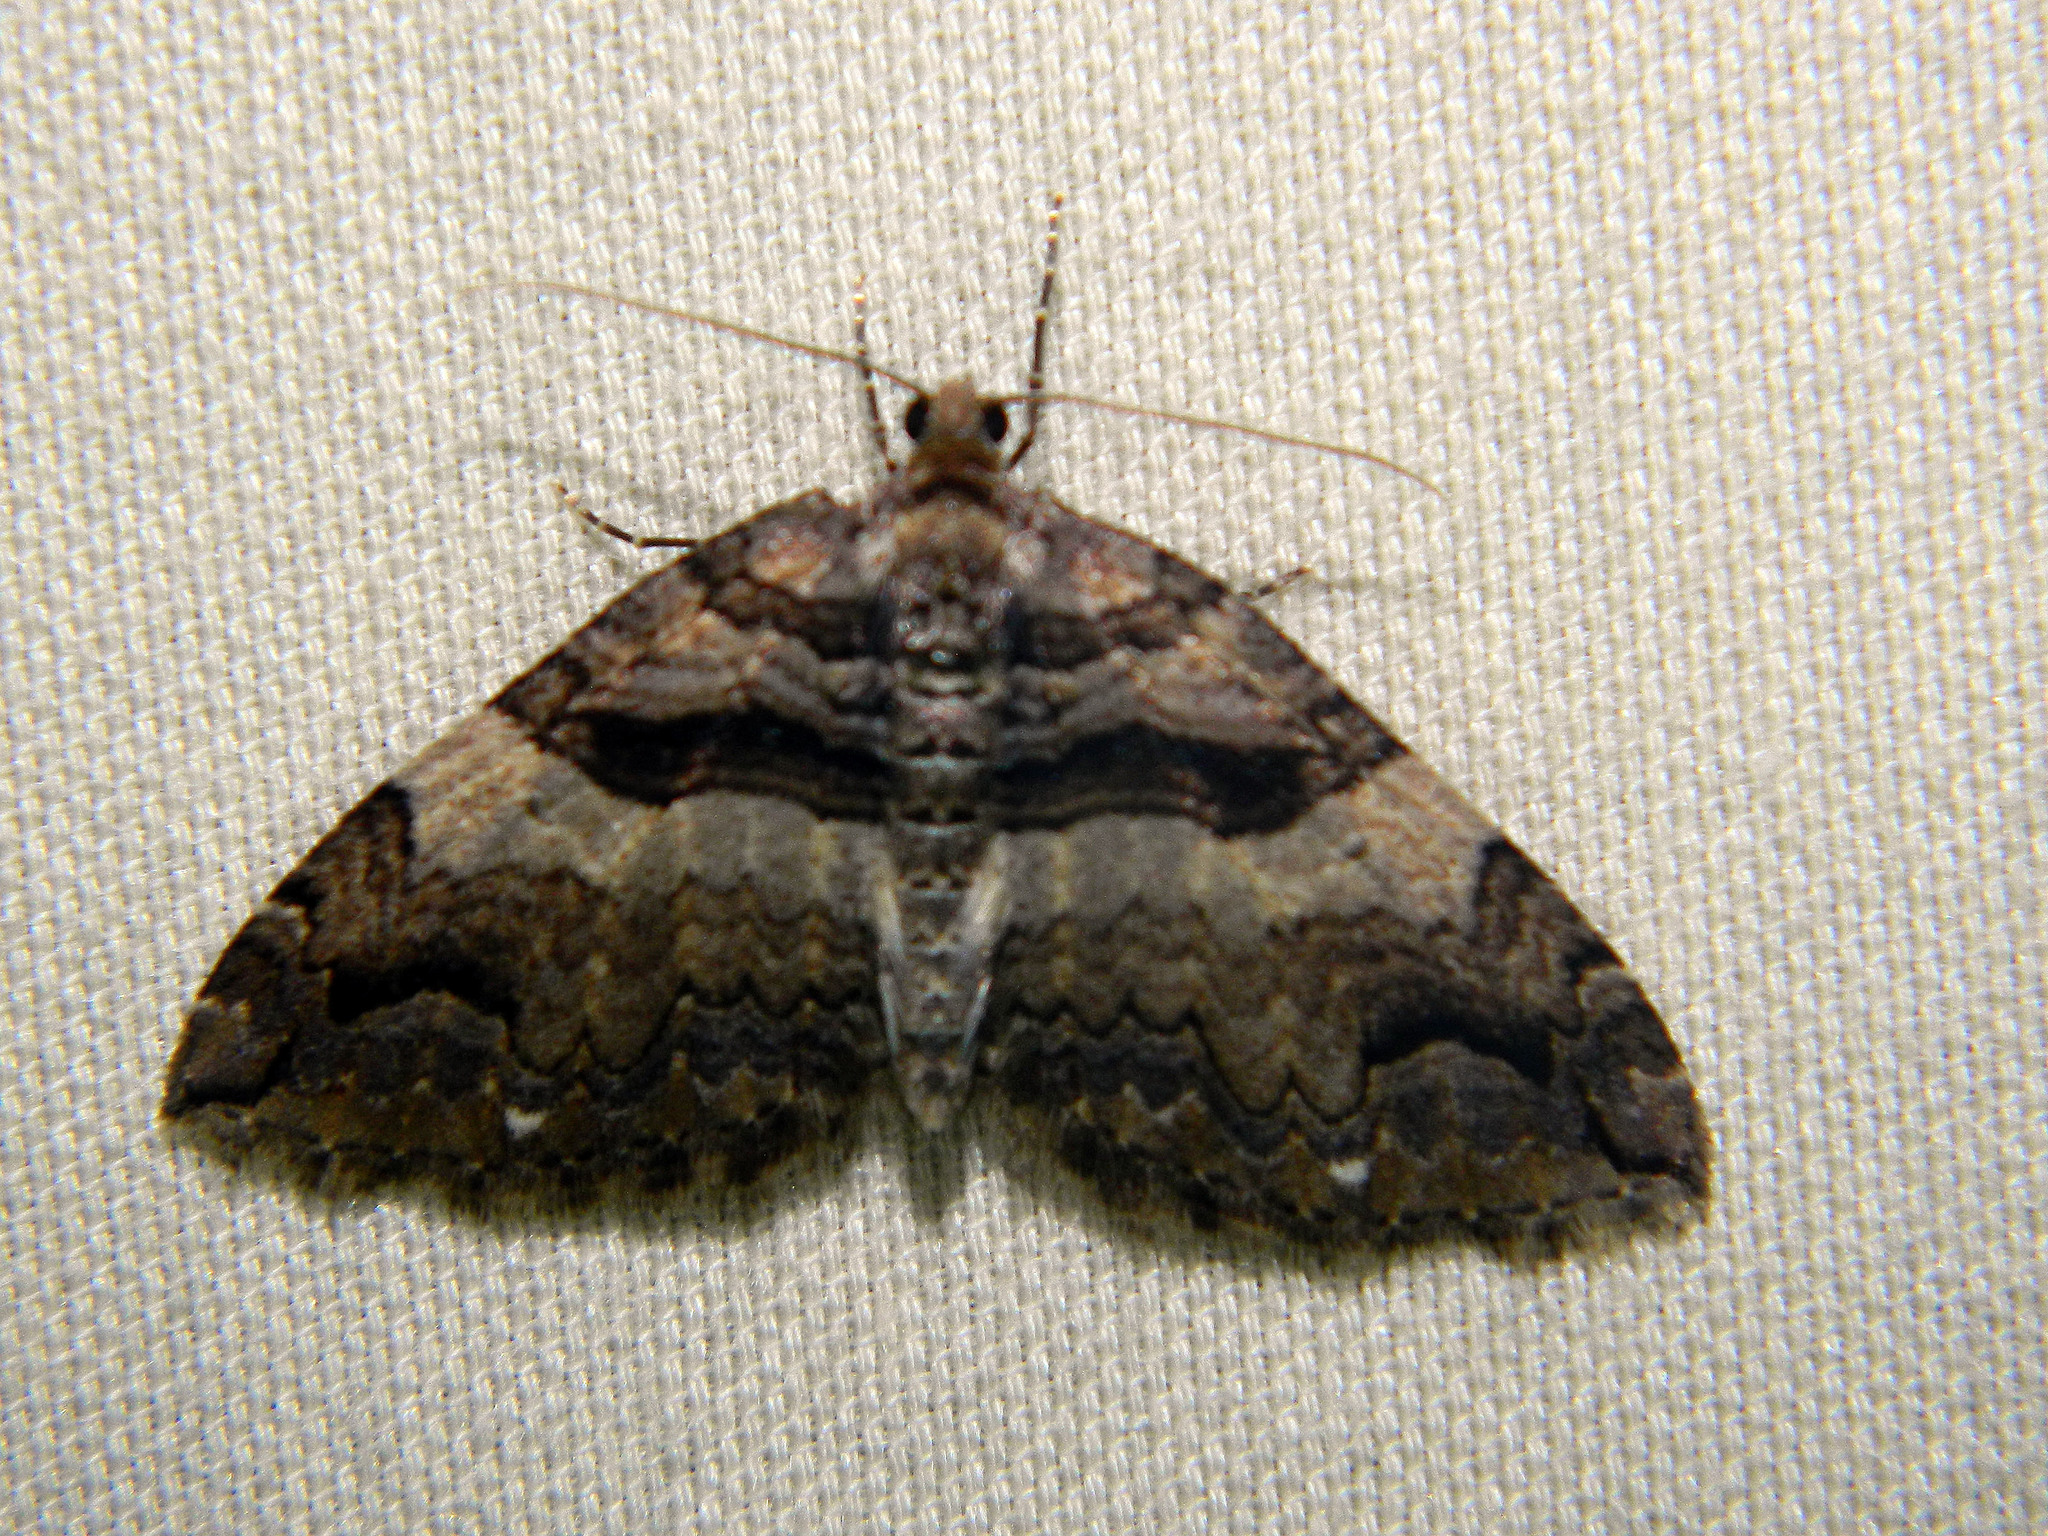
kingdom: Animalia
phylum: Arthropoda
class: Insecta
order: Lepidoptera
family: Geometridae
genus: Anticlea
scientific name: Anticlea vasiliata
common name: Variable carpet
